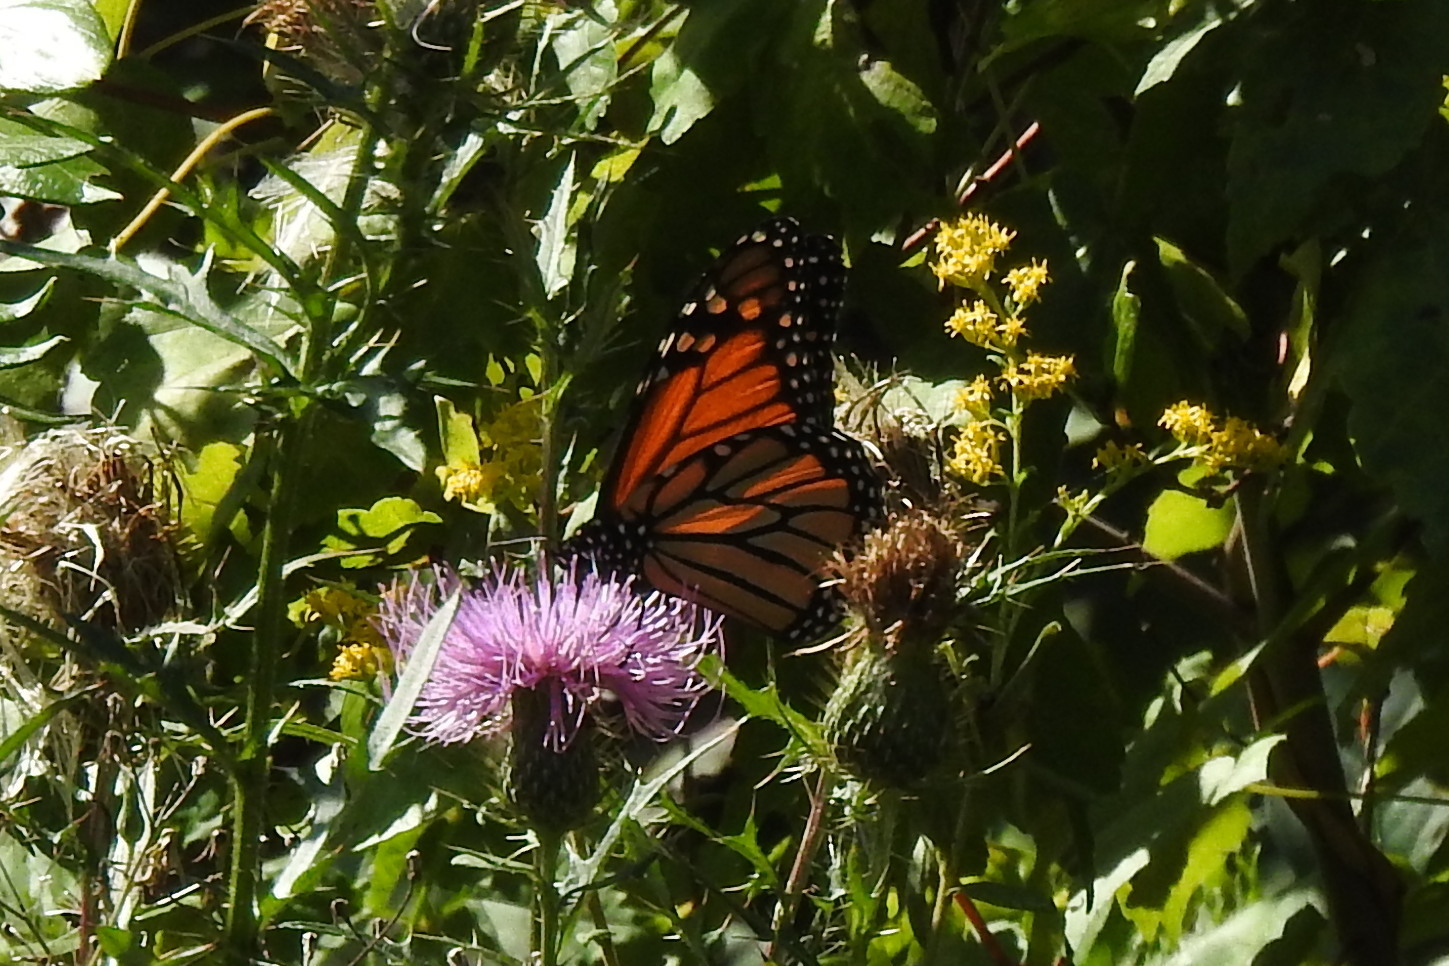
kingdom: Animalia
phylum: Arthropoda
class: Insecta
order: Lepidoptera
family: Nymphalidae
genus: Danaus
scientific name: Danaus plexippus
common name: Monarch
